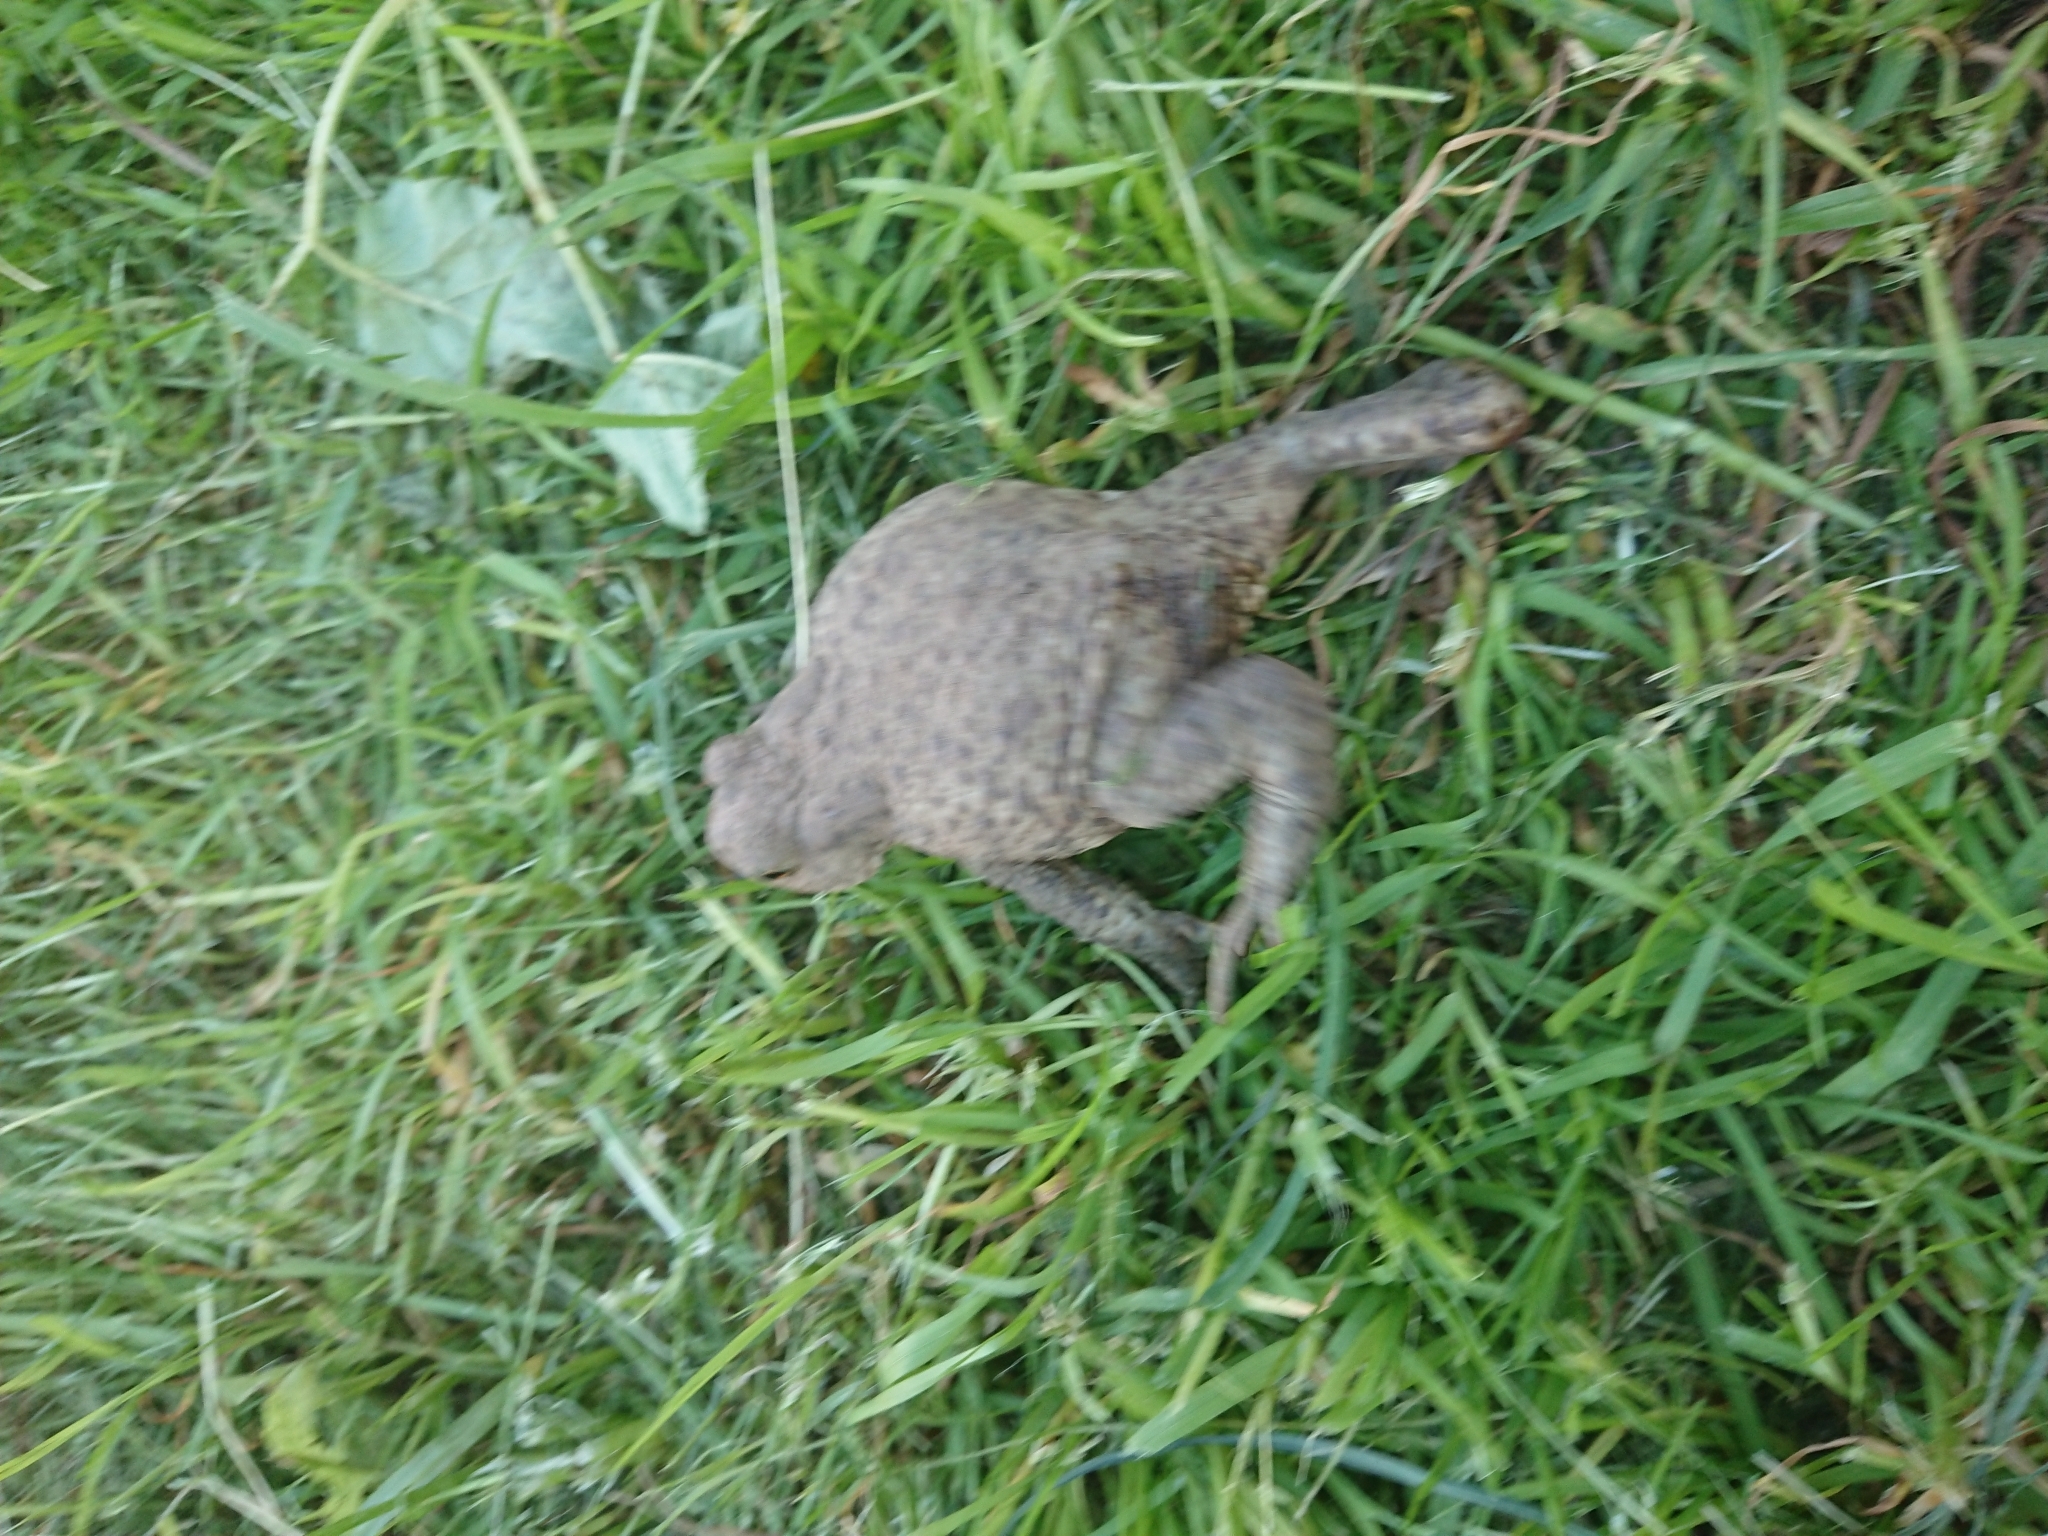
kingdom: Animalia
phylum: Chordata
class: Amphibia
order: Anura
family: Bufonidae
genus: Bufo
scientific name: Bufo bufo
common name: Common toad
